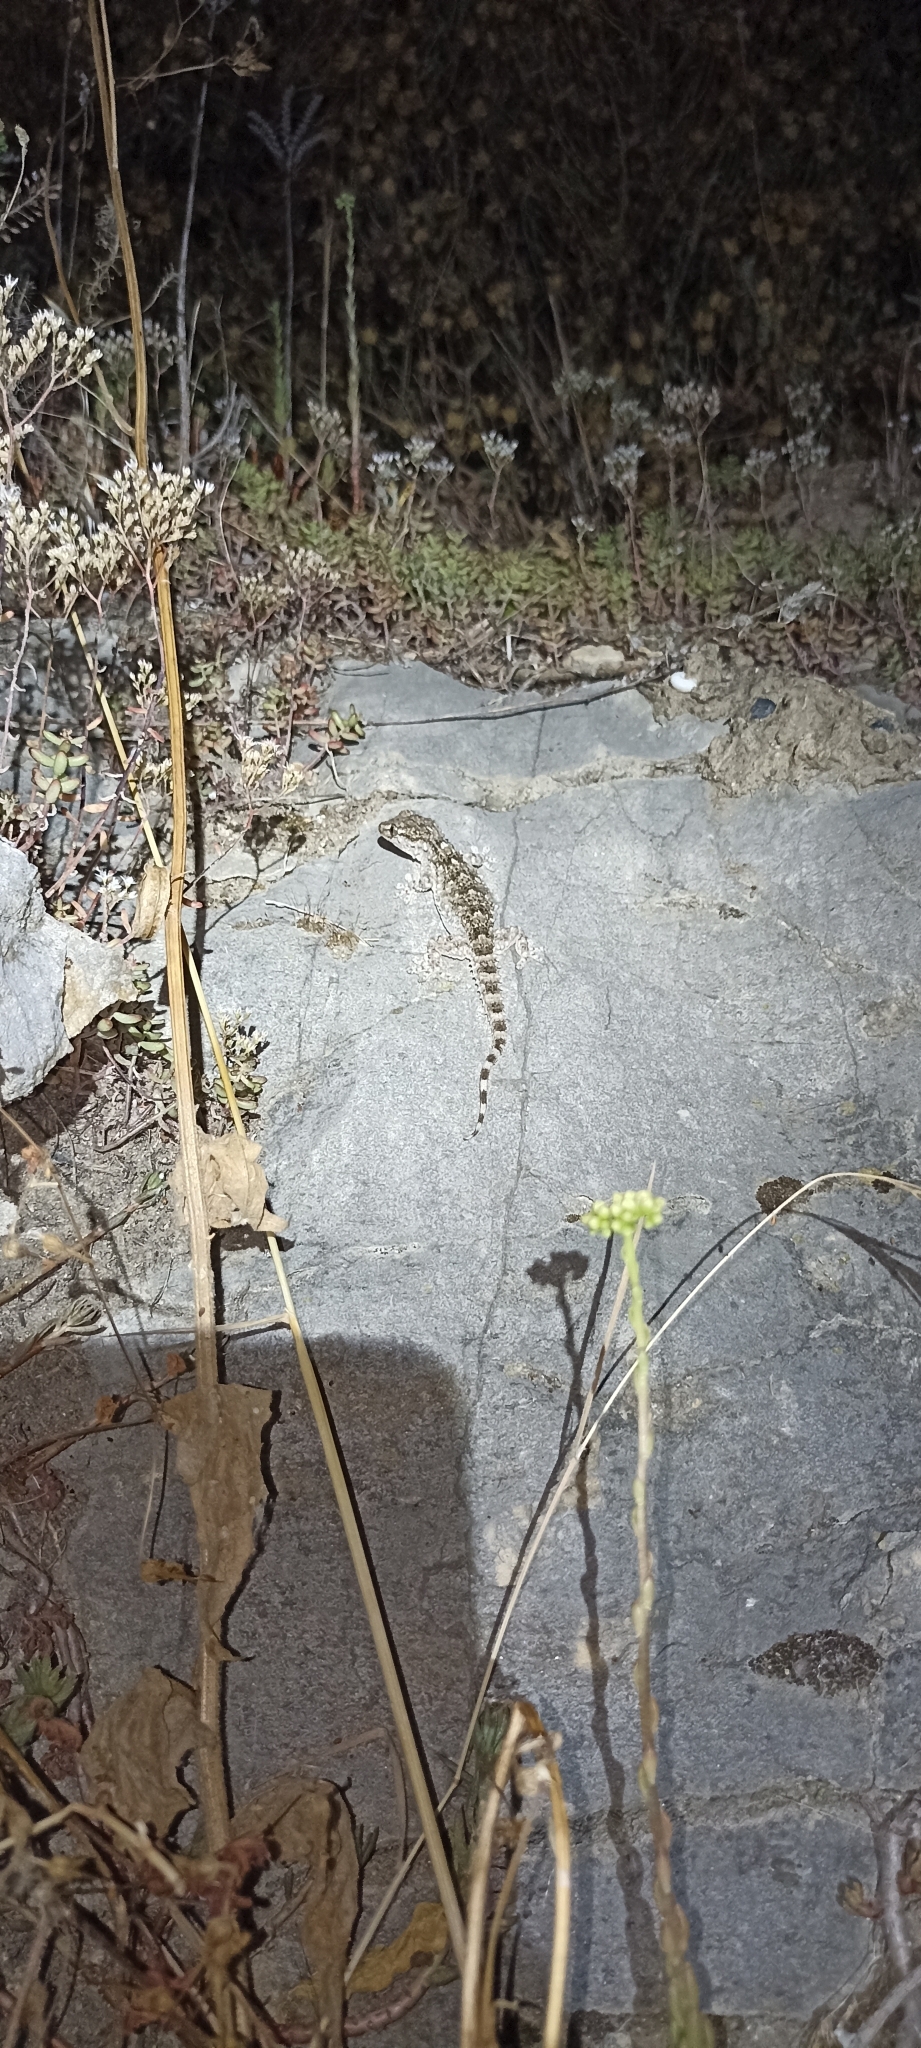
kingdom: Animalia
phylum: Chordata
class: Squamata
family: Phyllodactylidae
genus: Tarentola
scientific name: Tarentola mauritanica
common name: Moorish gecko
